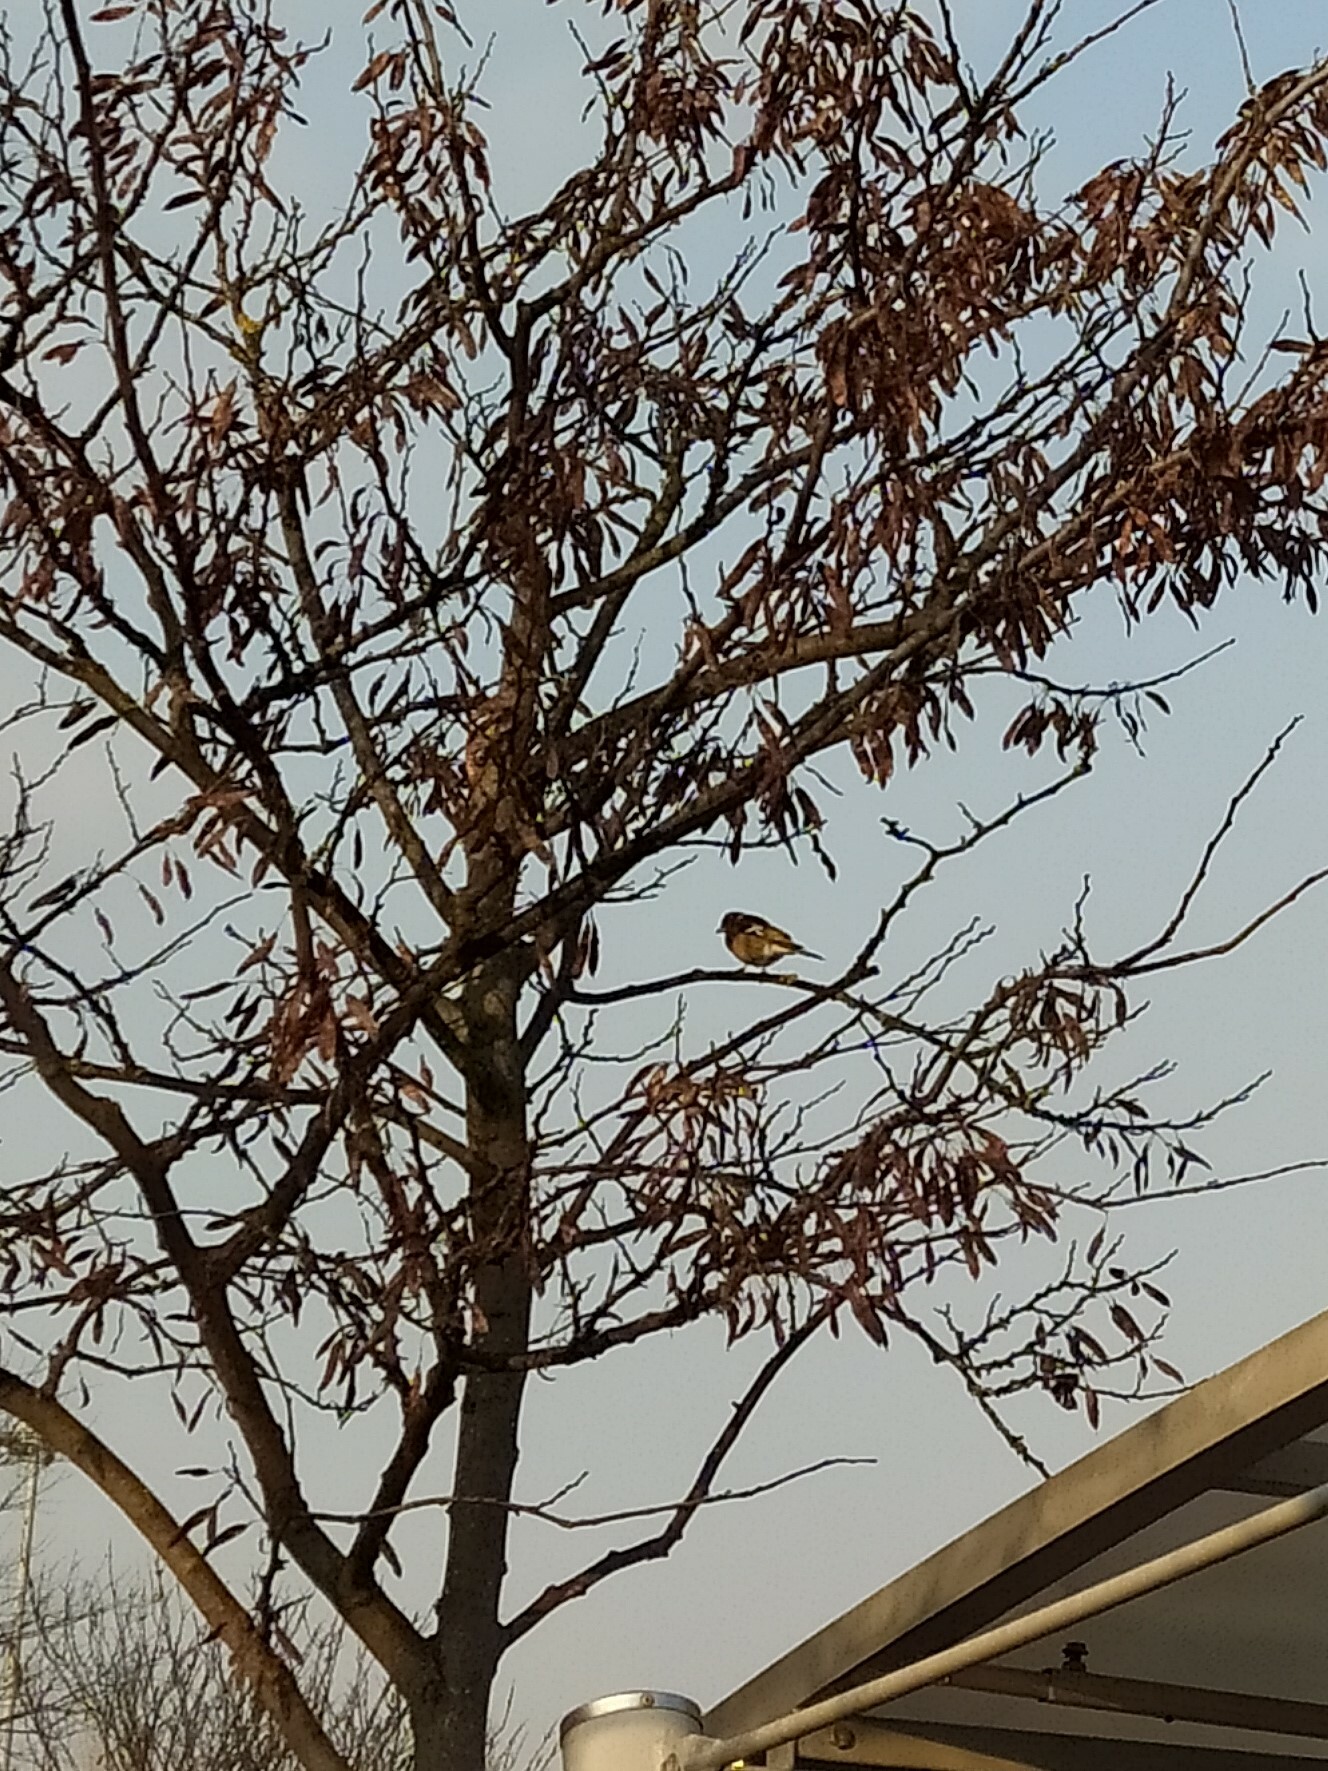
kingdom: Animalia
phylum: Chordata
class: Aves
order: Passeriformes
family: Fringillidae
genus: Fringilla
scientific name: Fringilla coelebs
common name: Common chaffinch
